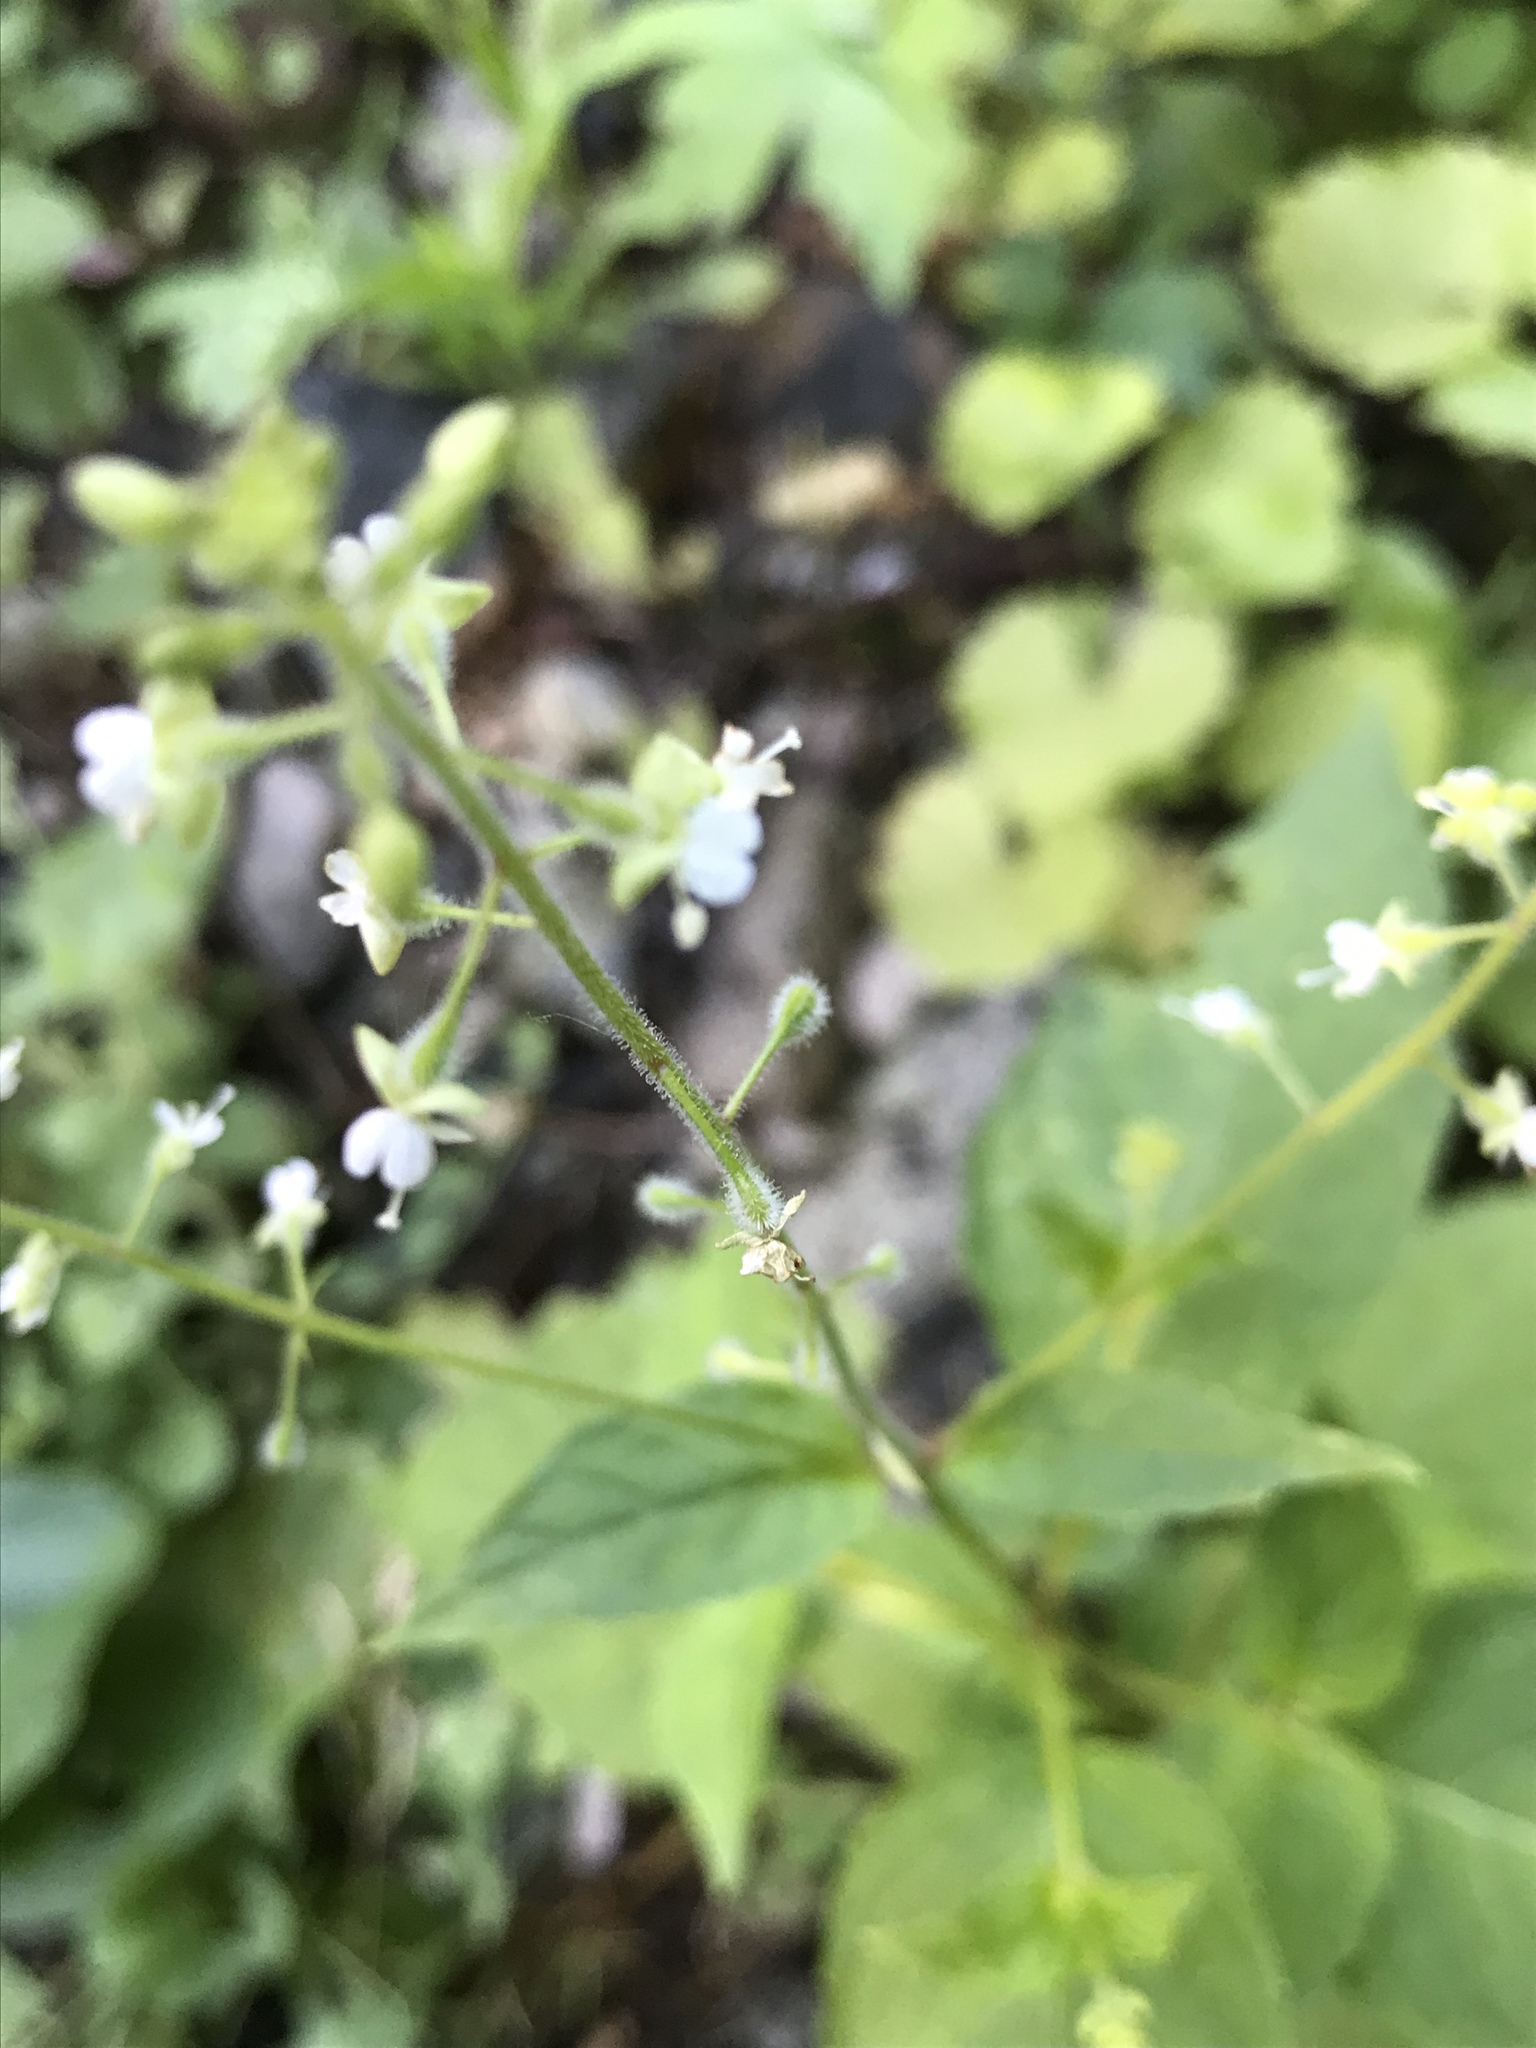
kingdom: Plantae
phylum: Tracheophyta
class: Magnoliopsida
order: Myrtales
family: Onagraceae
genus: Circaea
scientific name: Circaea canadensis
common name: Broad-leaved enchanter's nightshade
